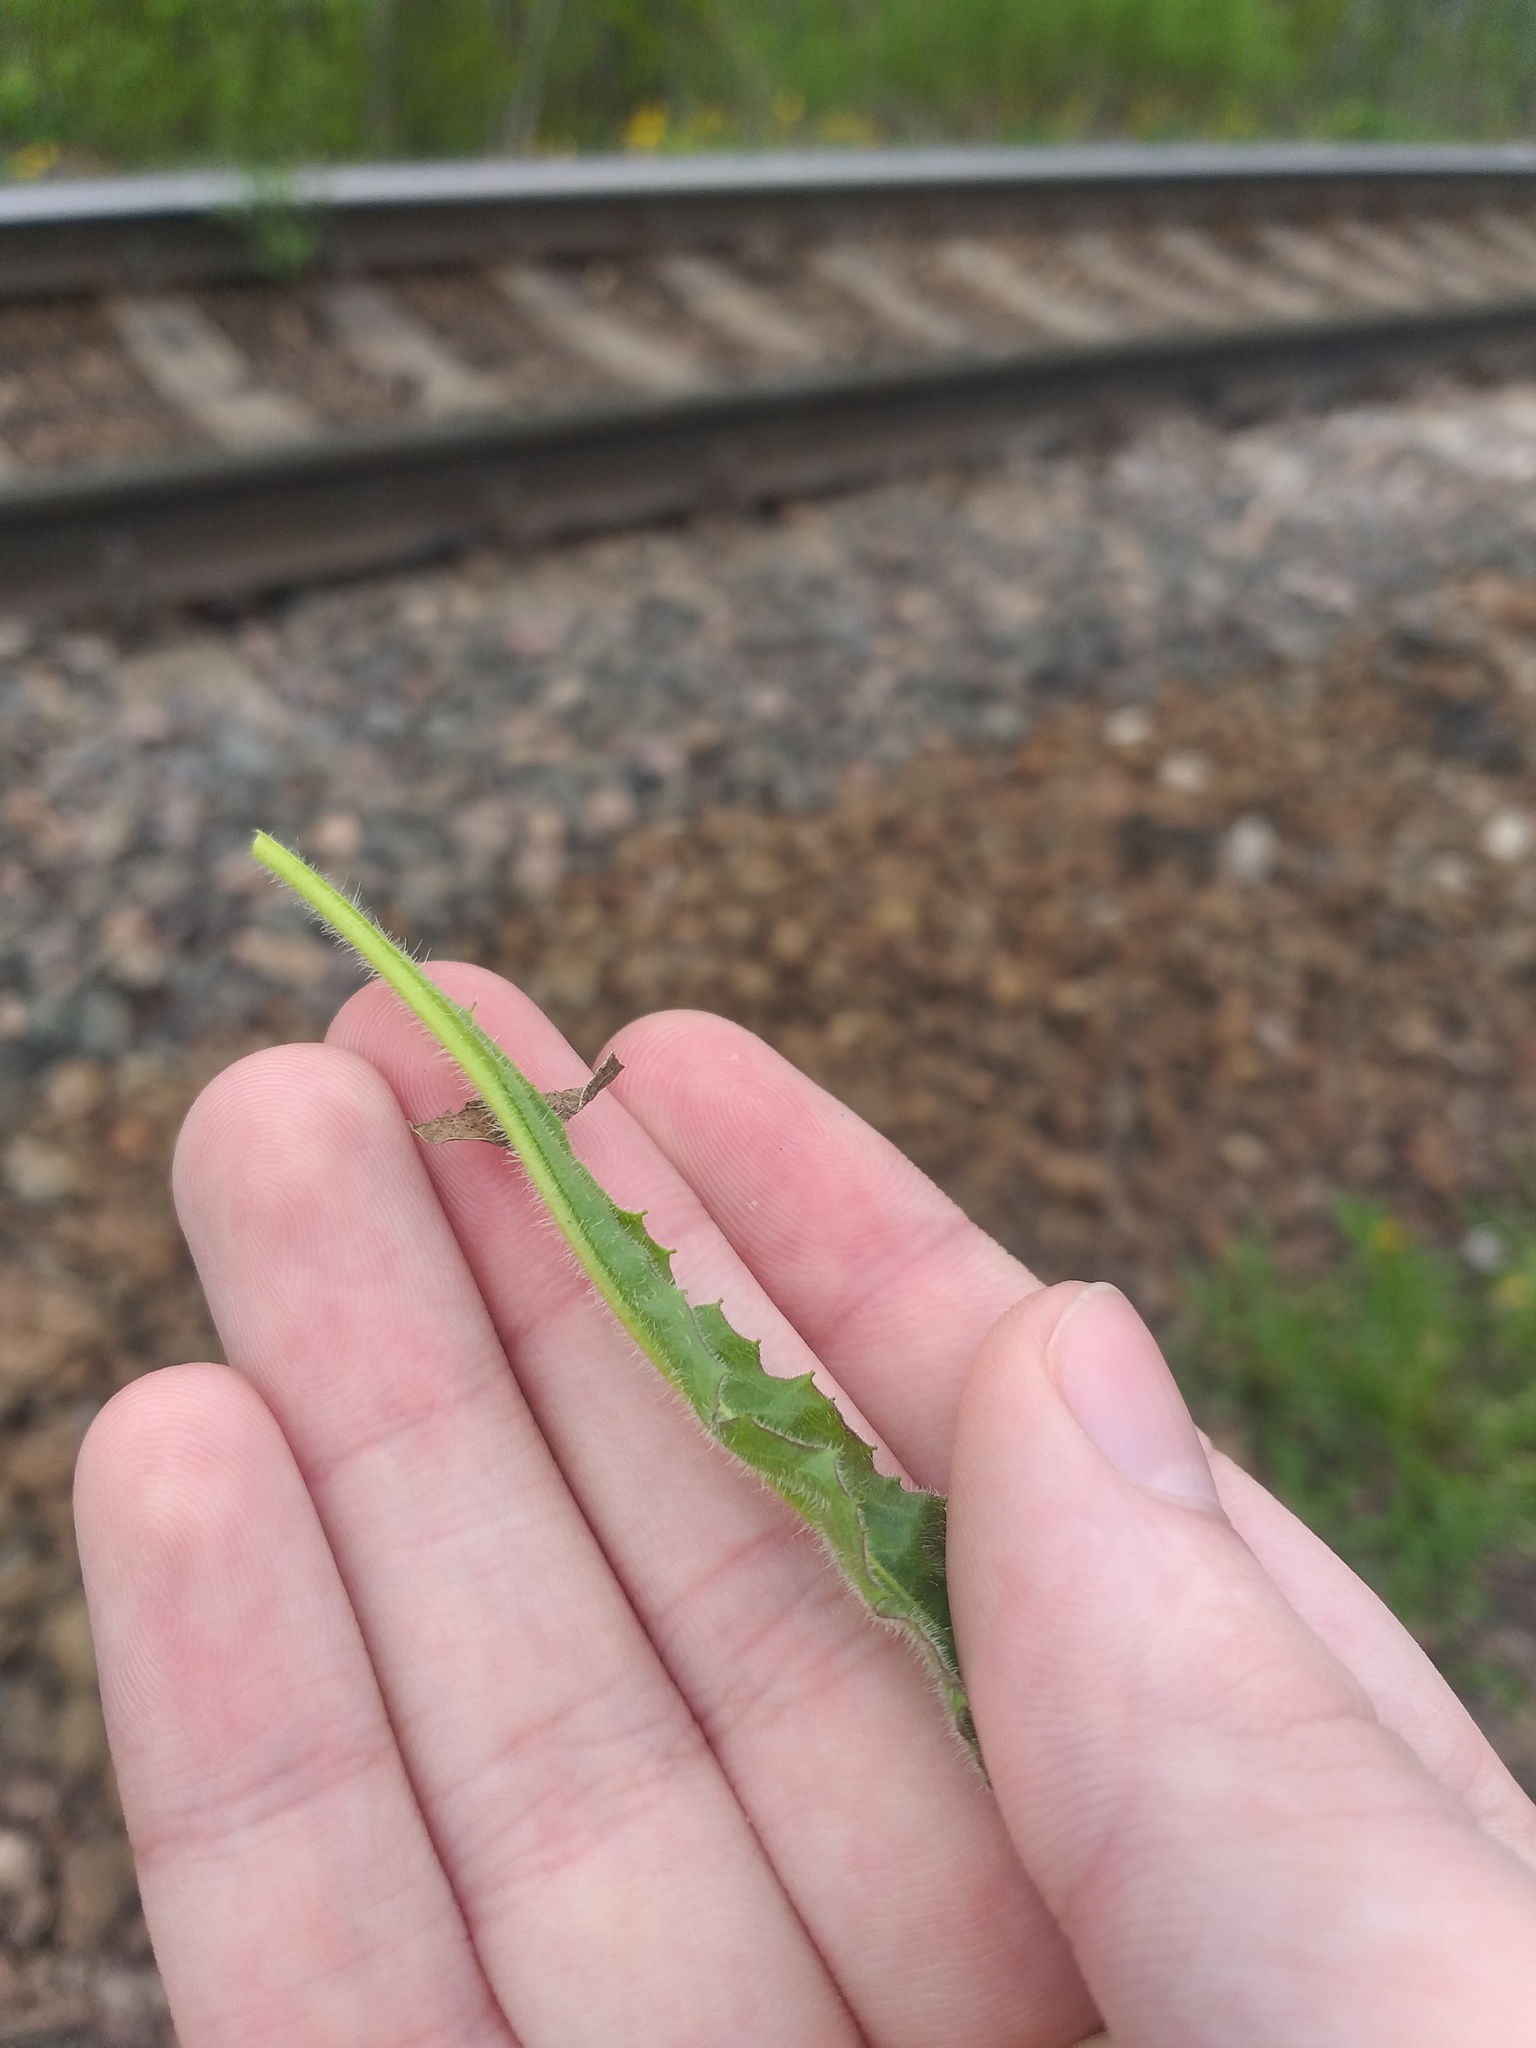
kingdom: Plantae
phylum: Tracheophyta
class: Magnoliopsida
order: Asterales
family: Asteraceae
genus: Picris
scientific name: Picris hieracioides
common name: Hawkweed oxtongue
